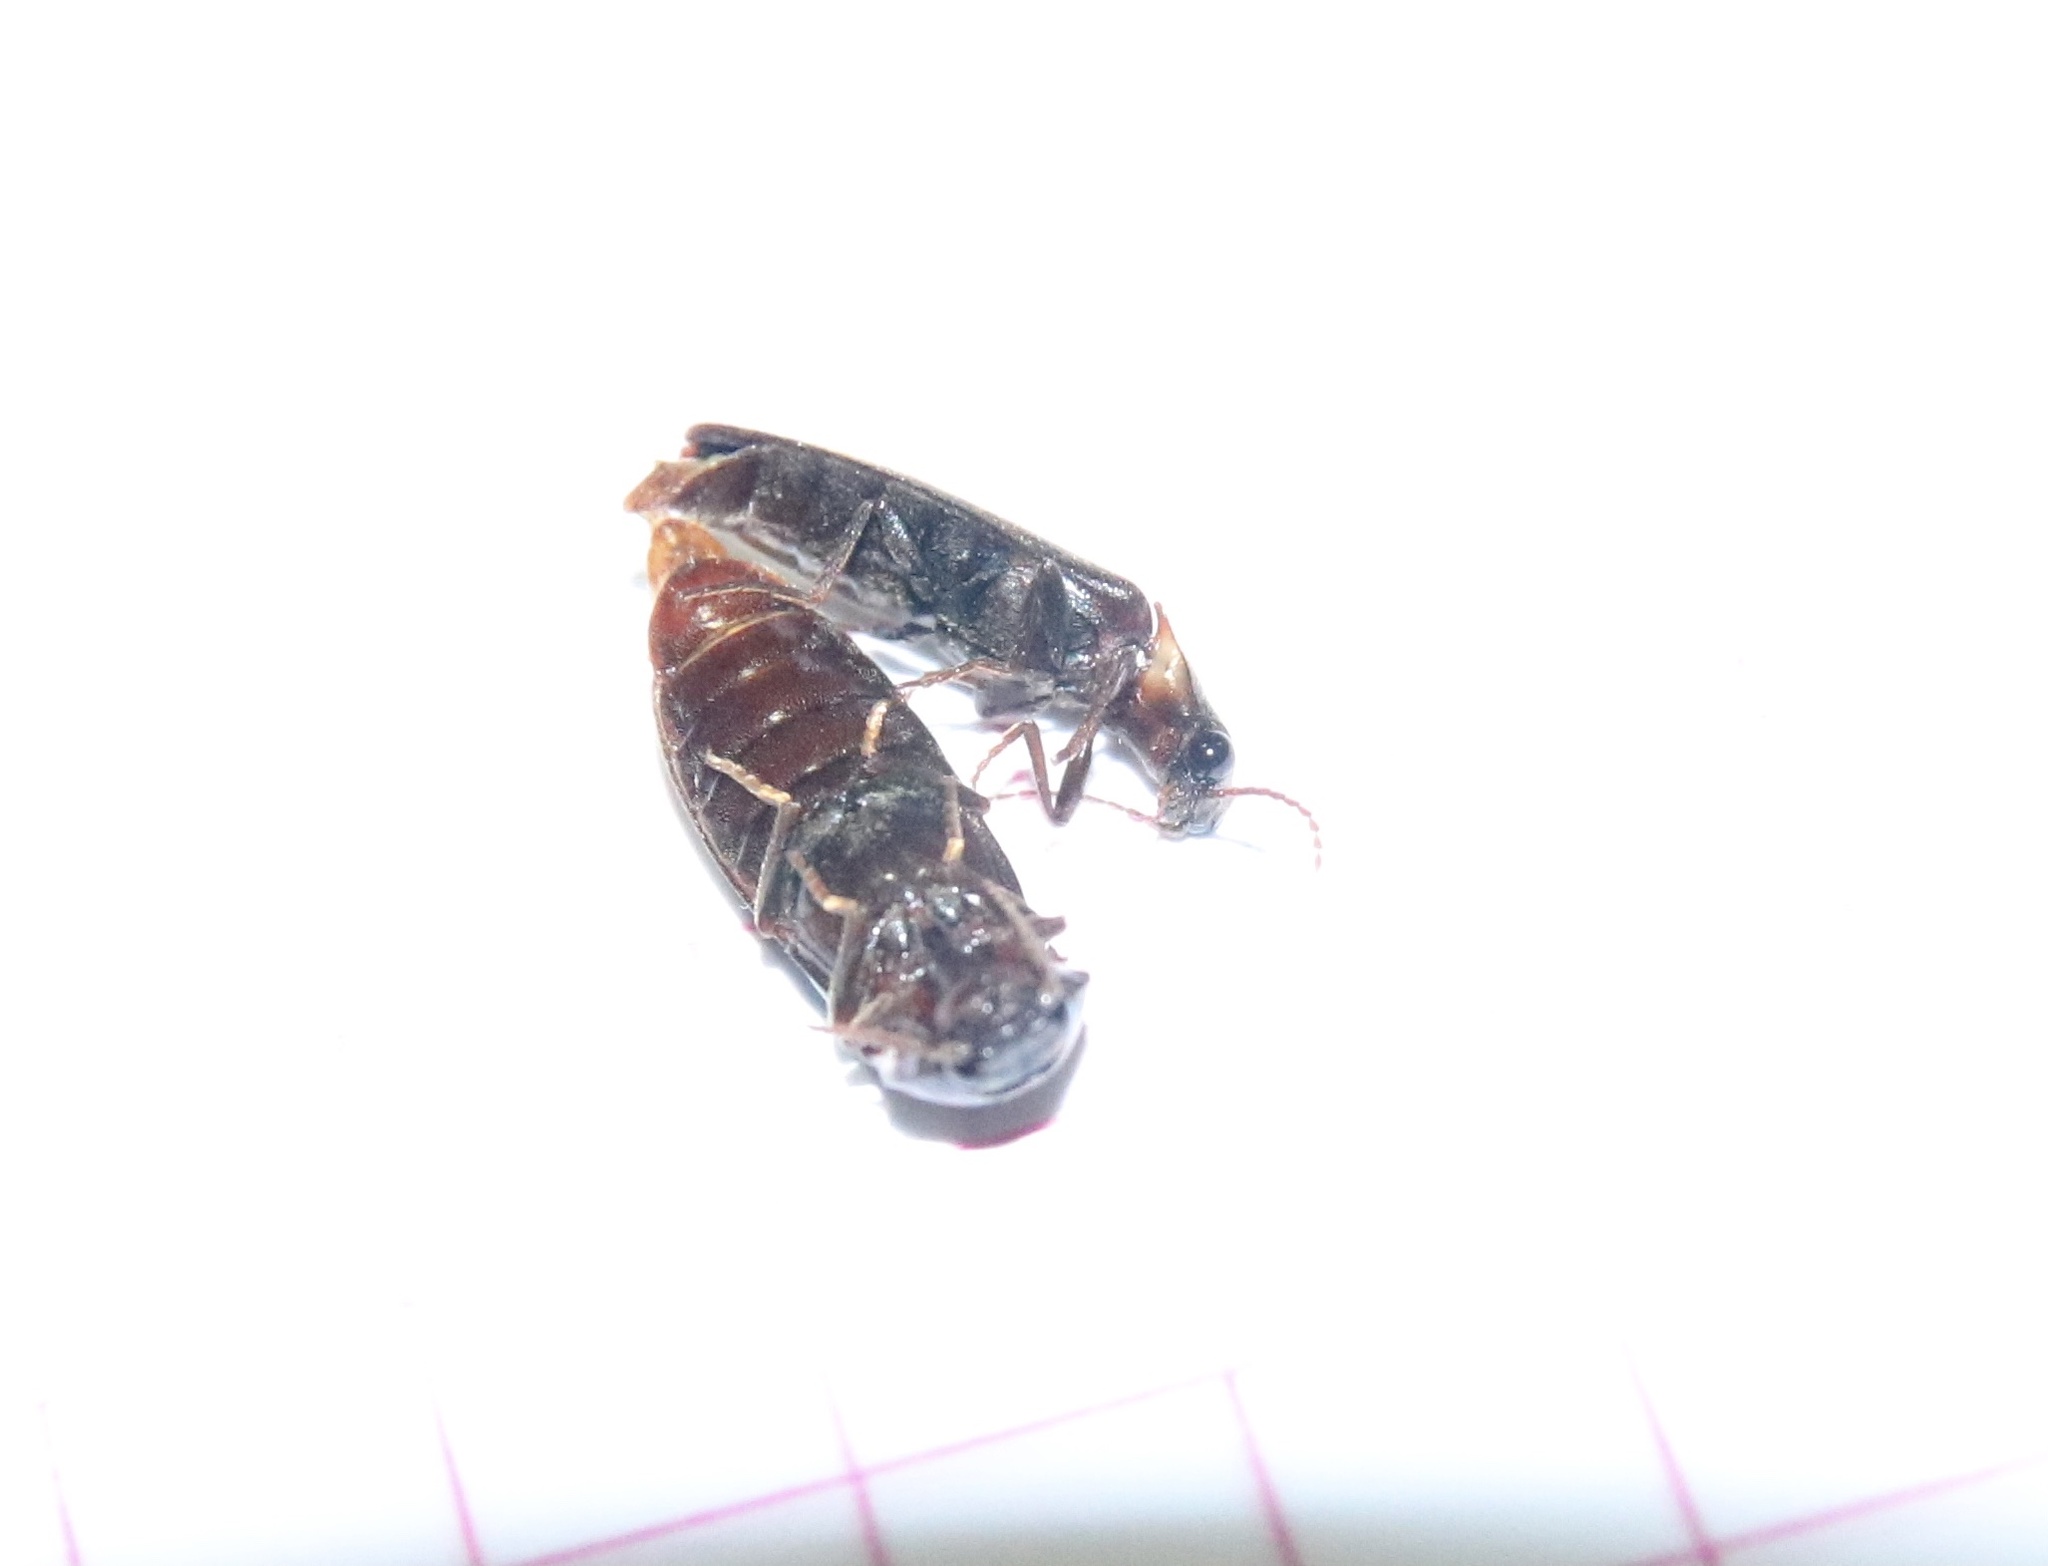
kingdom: Animalia
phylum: Arthropoda
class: Insecta
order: Coleoptera
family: Elateridae
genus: Phanophorus
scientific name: Phanophorus
